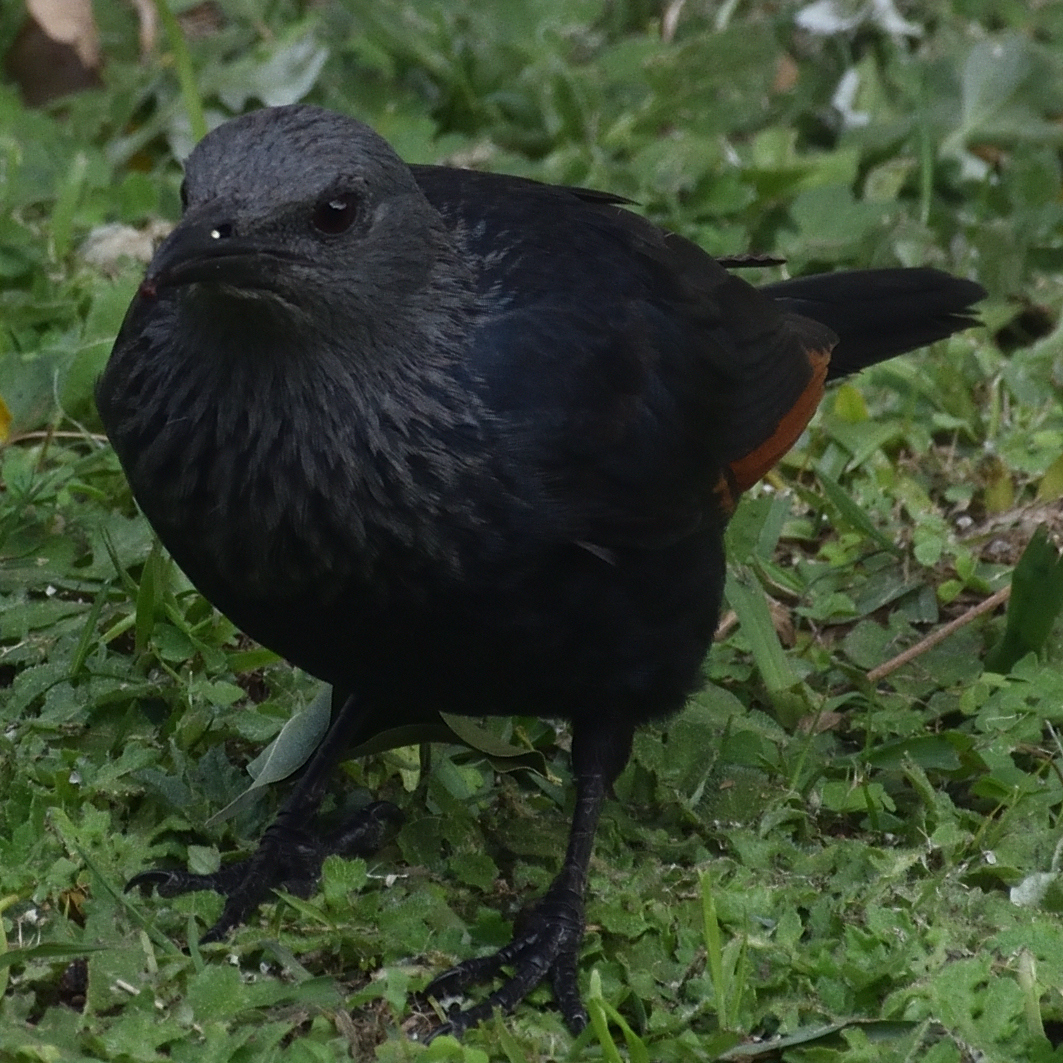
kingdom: Animalia
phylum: Chordata
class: Aves
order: Passeriformes
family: Sturnidae
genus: Onychognathus
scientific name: Onychognathus morio
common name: Red-winged starling
